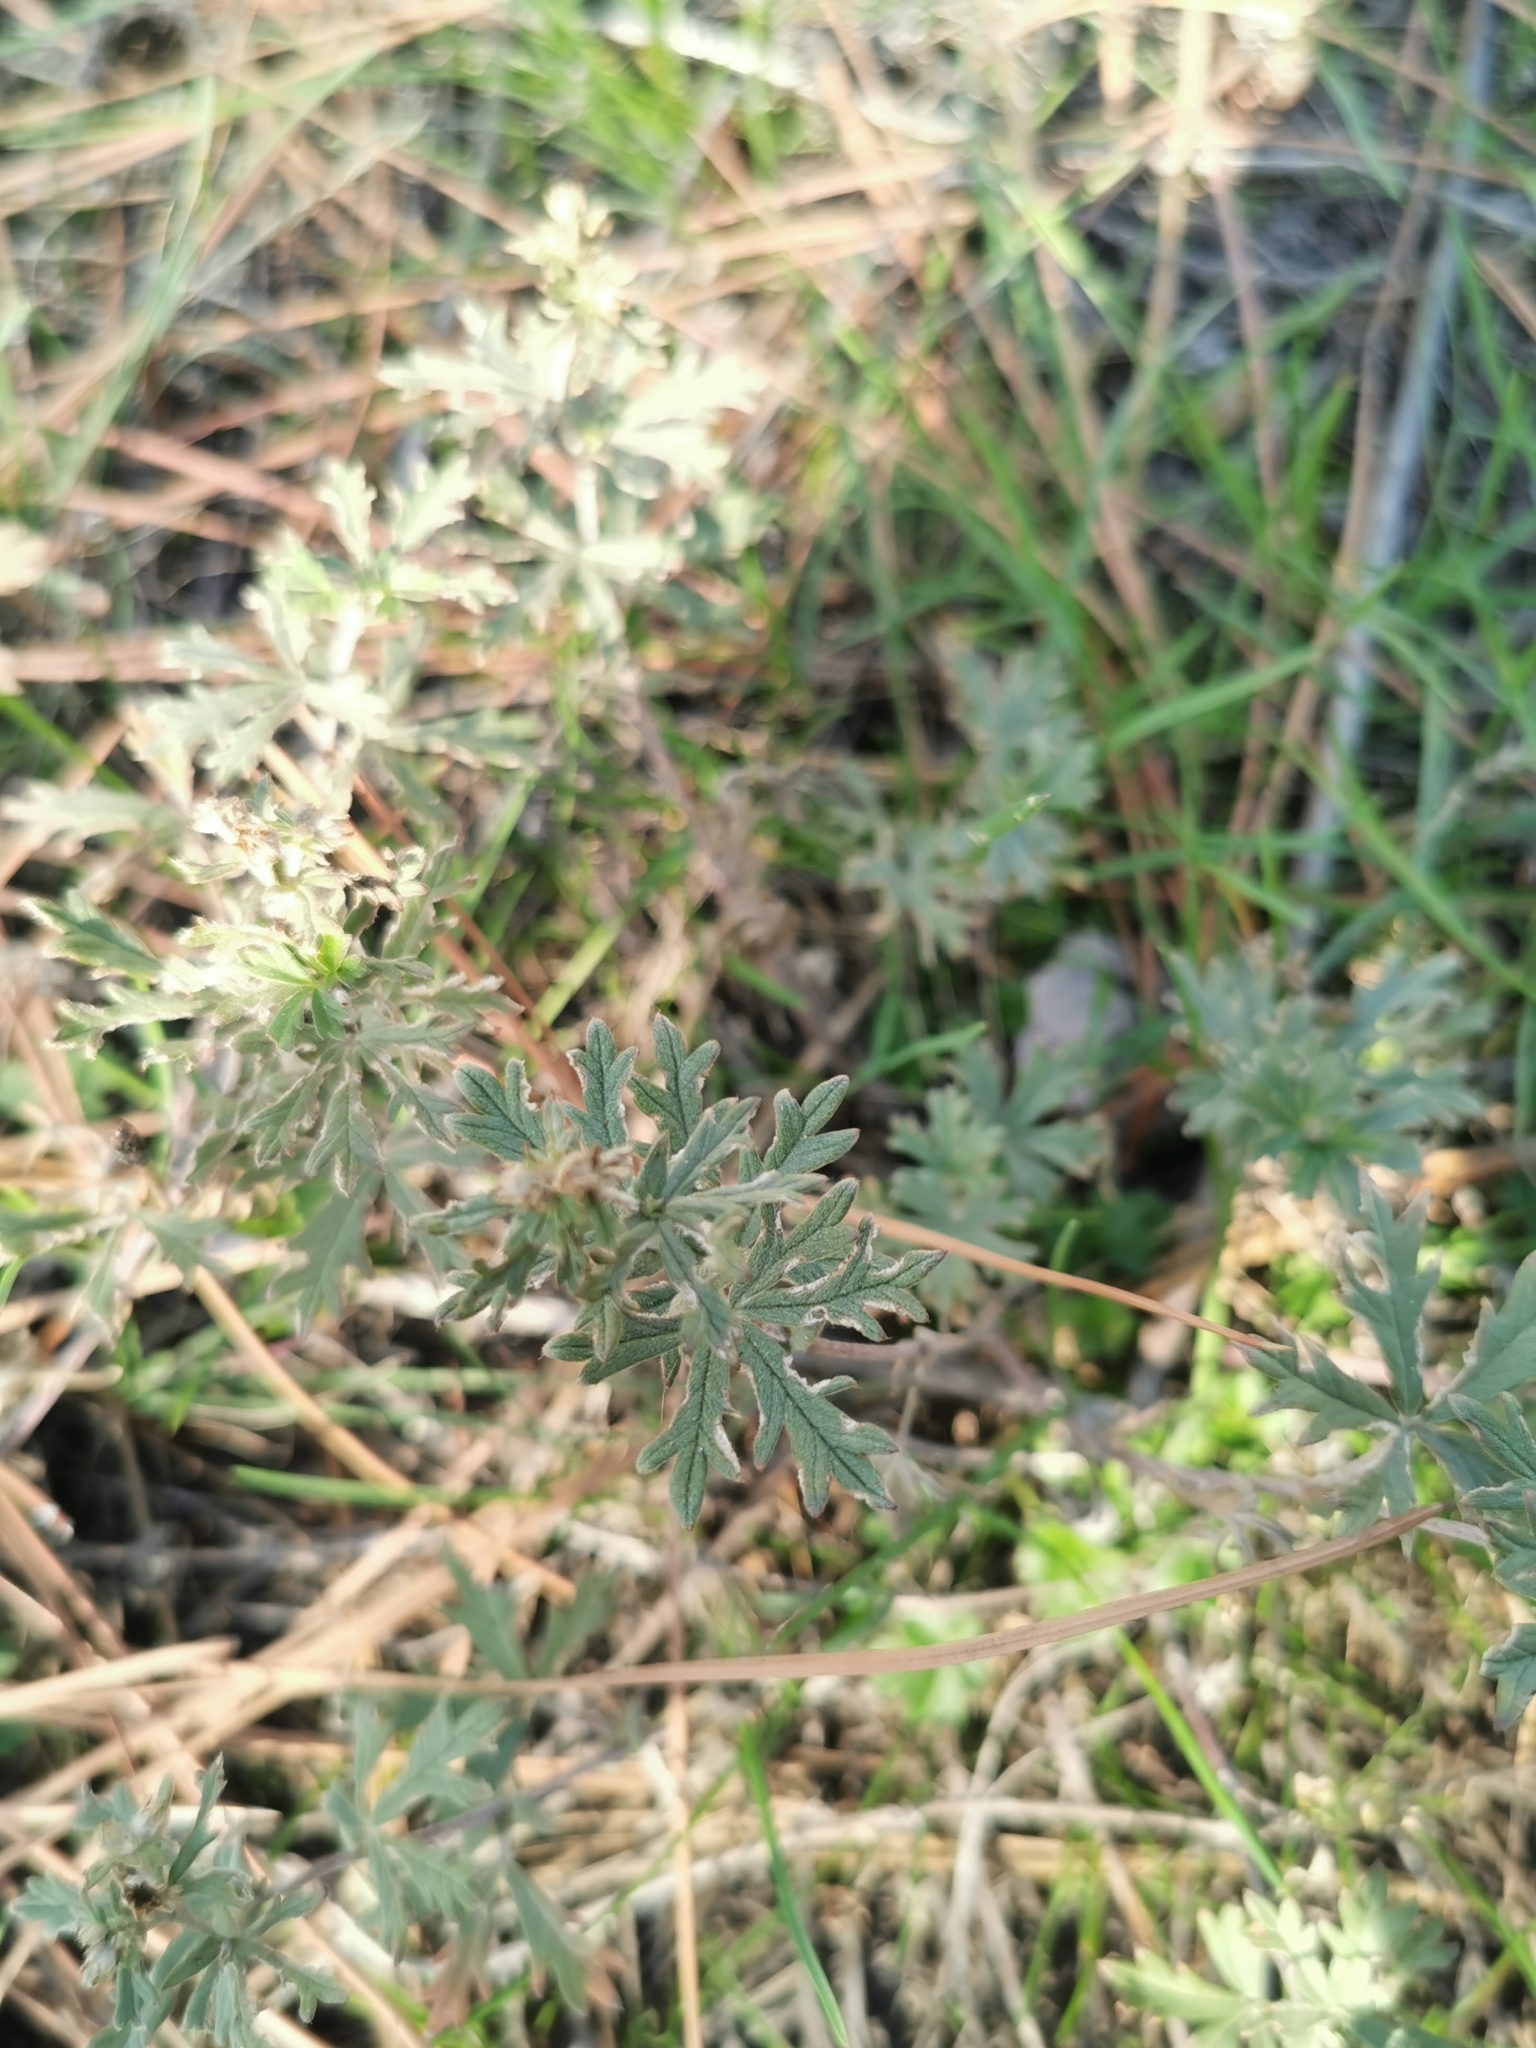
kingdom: Plantae
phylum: Tracheophyta
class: Magnoliopsida
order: Rosales
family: Rosaceae
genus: Potentilla
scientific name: Potentilla argentea
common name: Hoary cinquefoil
